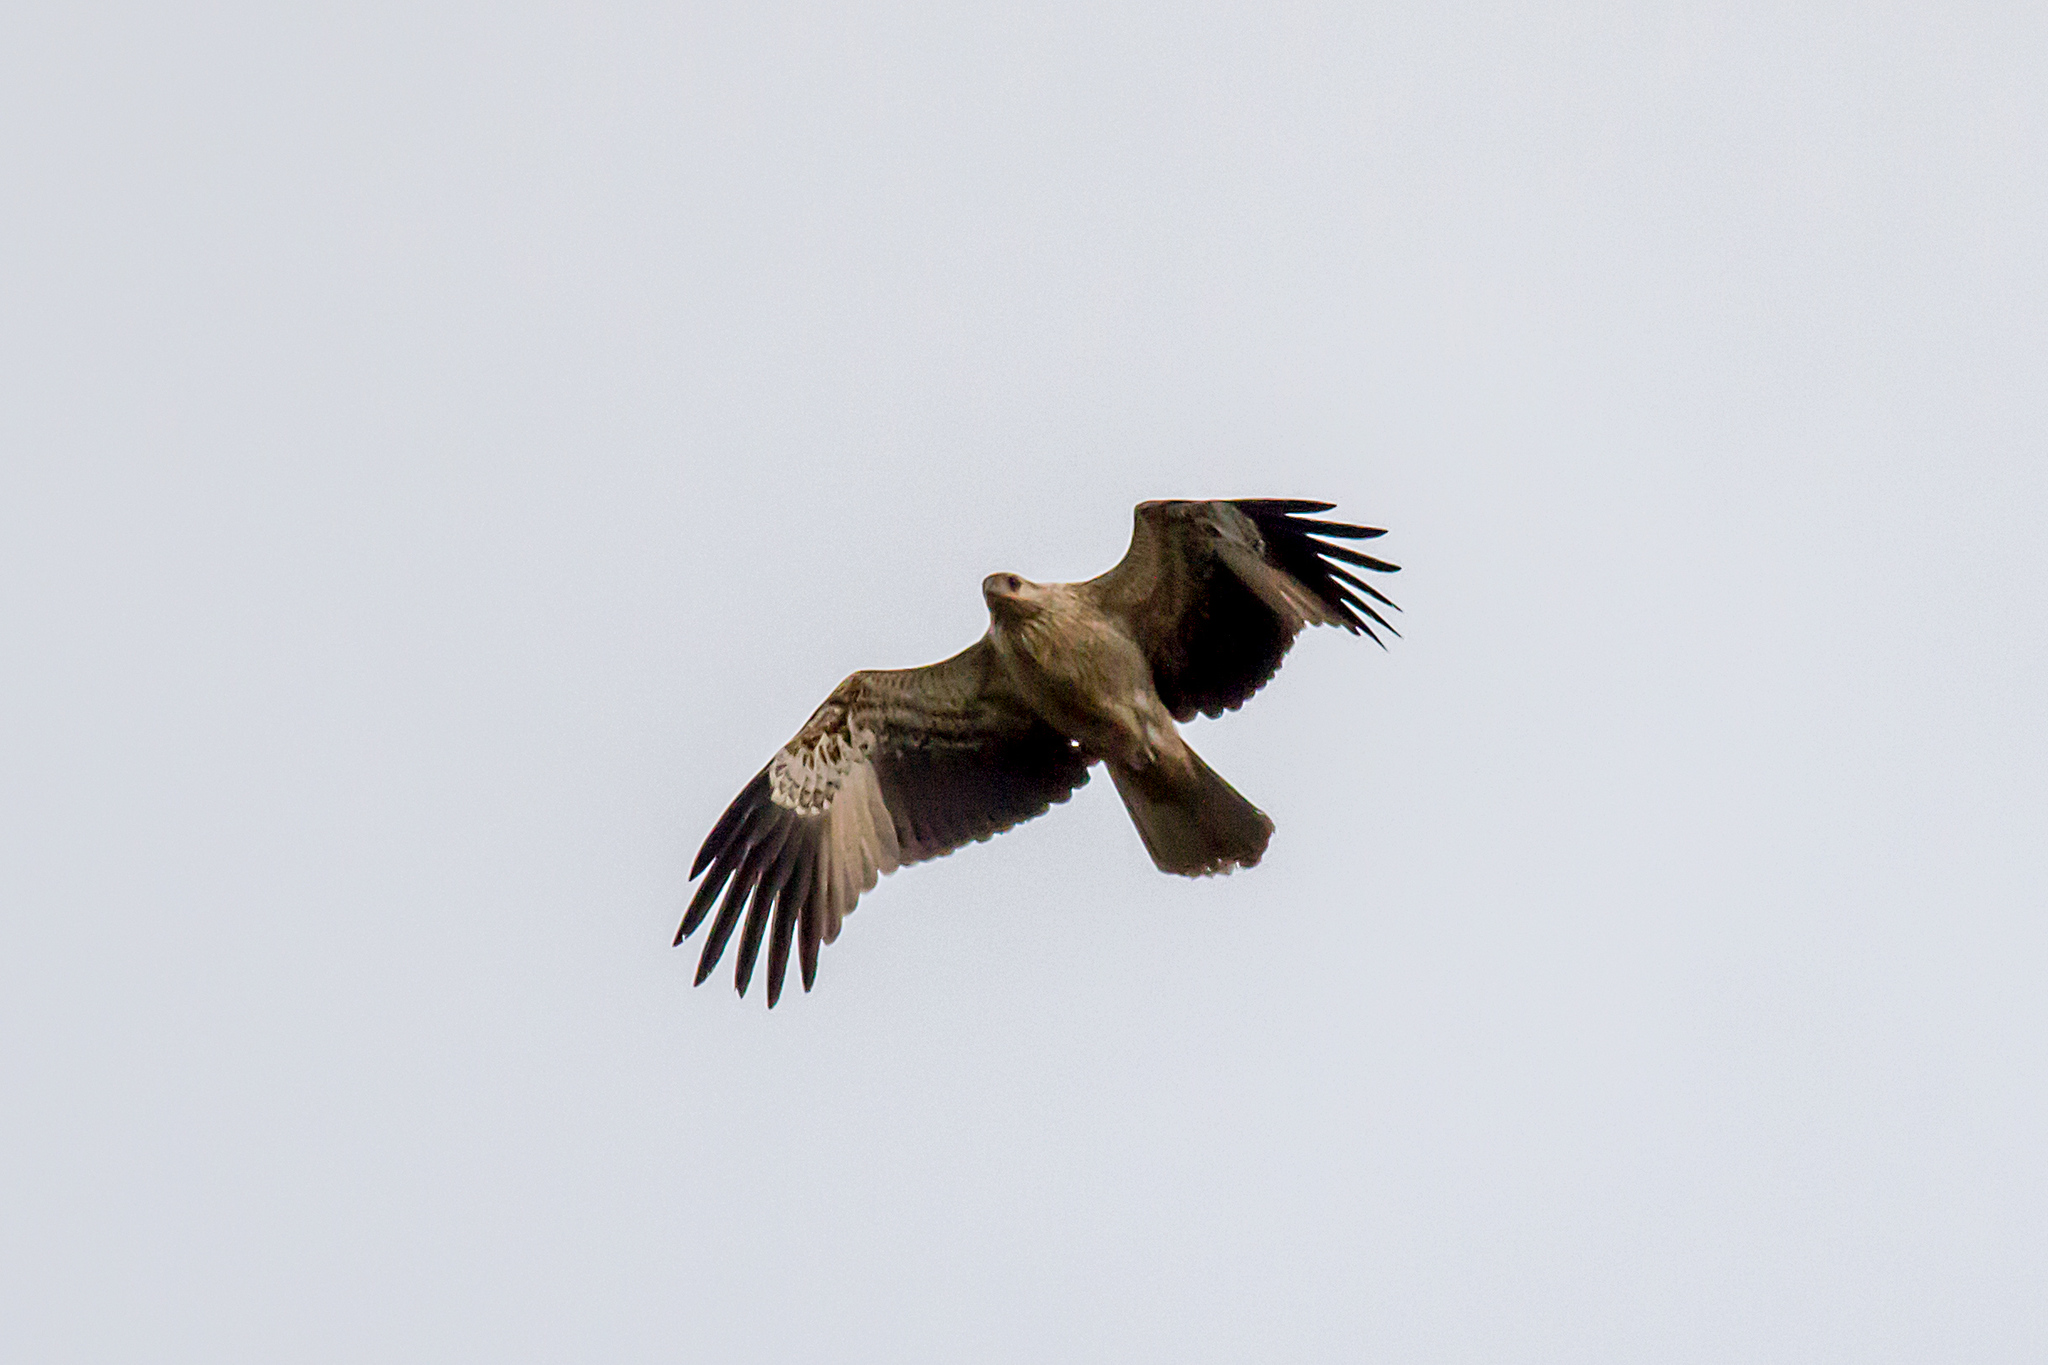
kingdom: Animalia
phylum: Chordata
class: Aves
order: Accipitriformes
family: Accipitridae
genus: Haliastur
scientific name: Haliastur sphenurus
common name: Whistling kite
